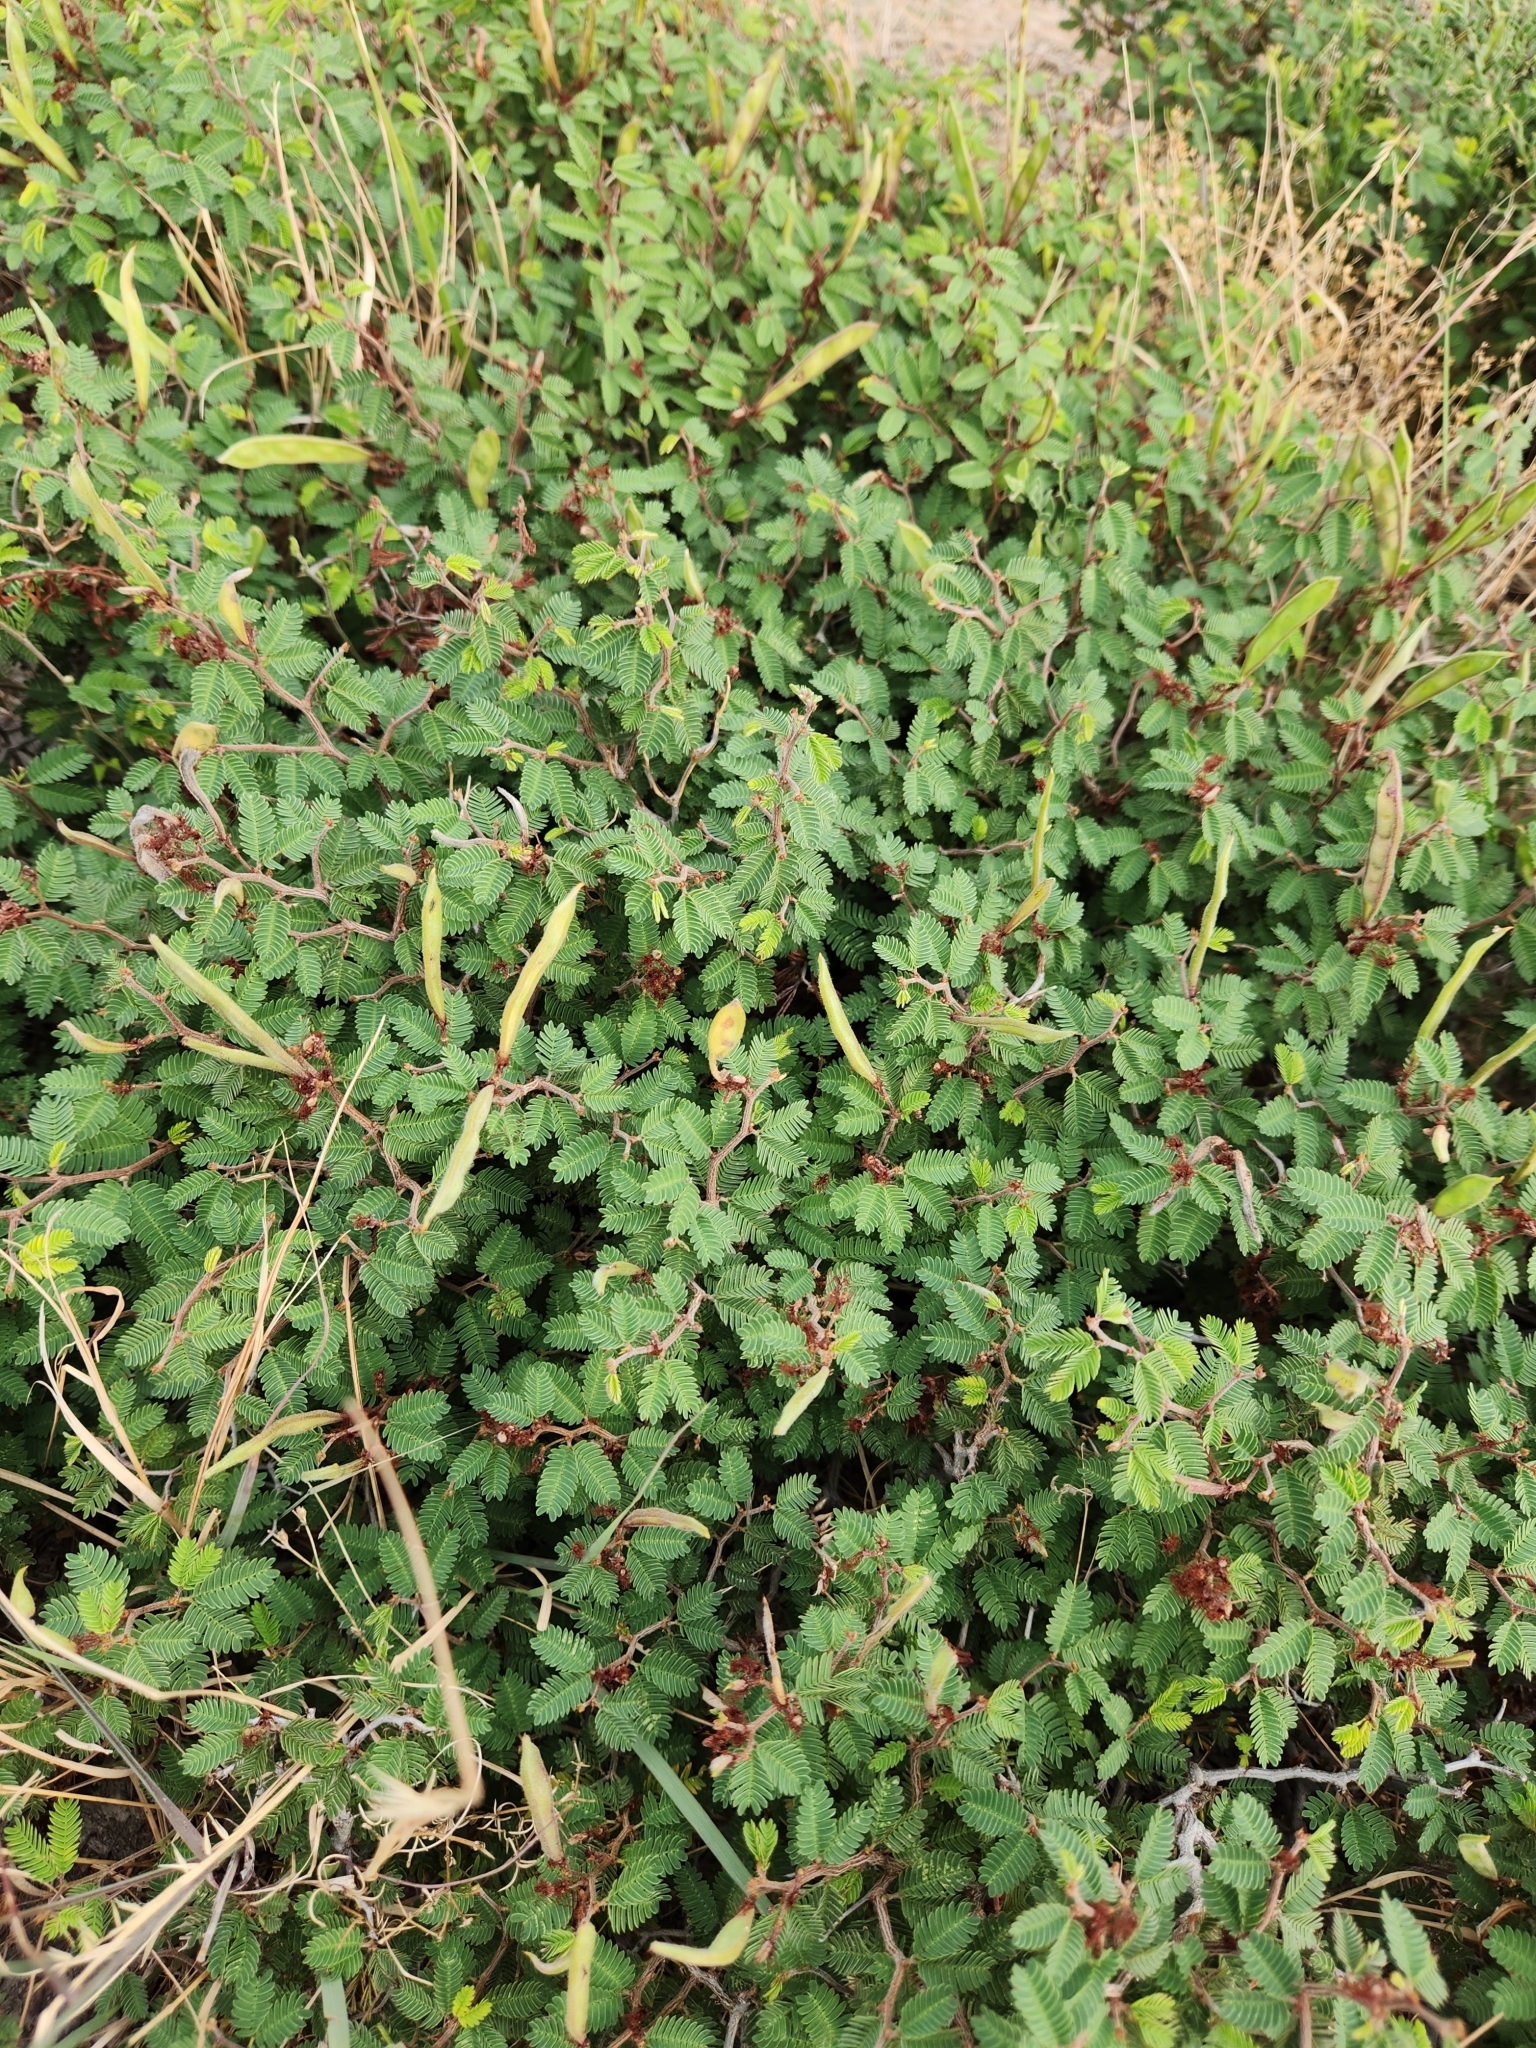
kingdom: Plantae
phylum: Tracheophyta
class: Magnoliopsida
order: Fabales
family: Fabaceae
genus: Calliandra
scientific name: Calliandra conferta
